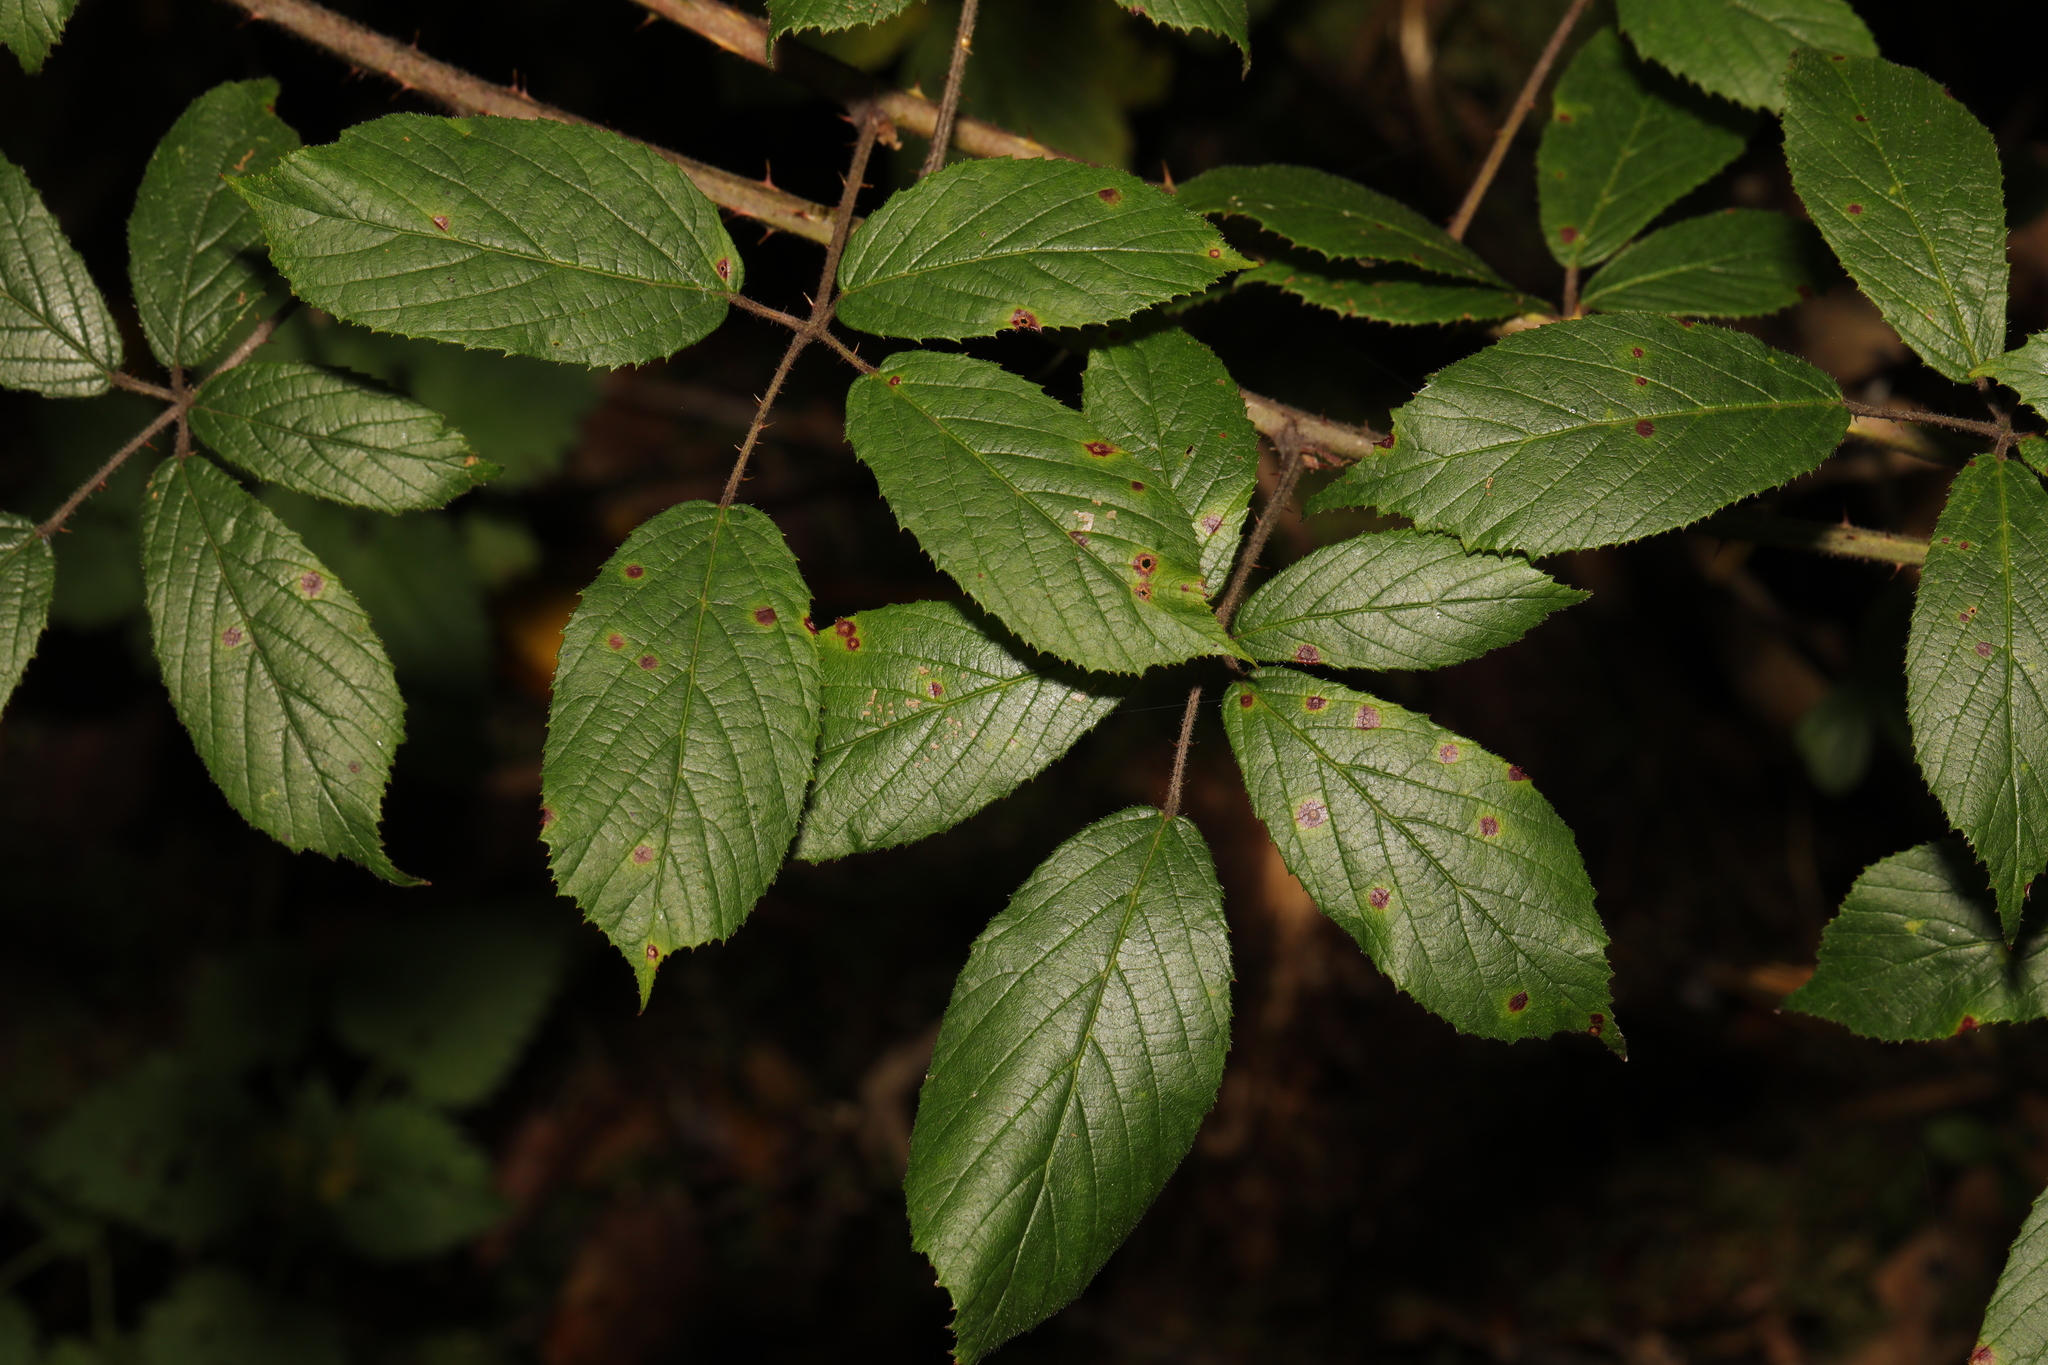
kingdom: Plantae
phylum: Tracheophyta
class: Magnoliopsida
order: Rosales
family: Rosaceae
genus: Rubus
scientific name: Rubus rufescens
